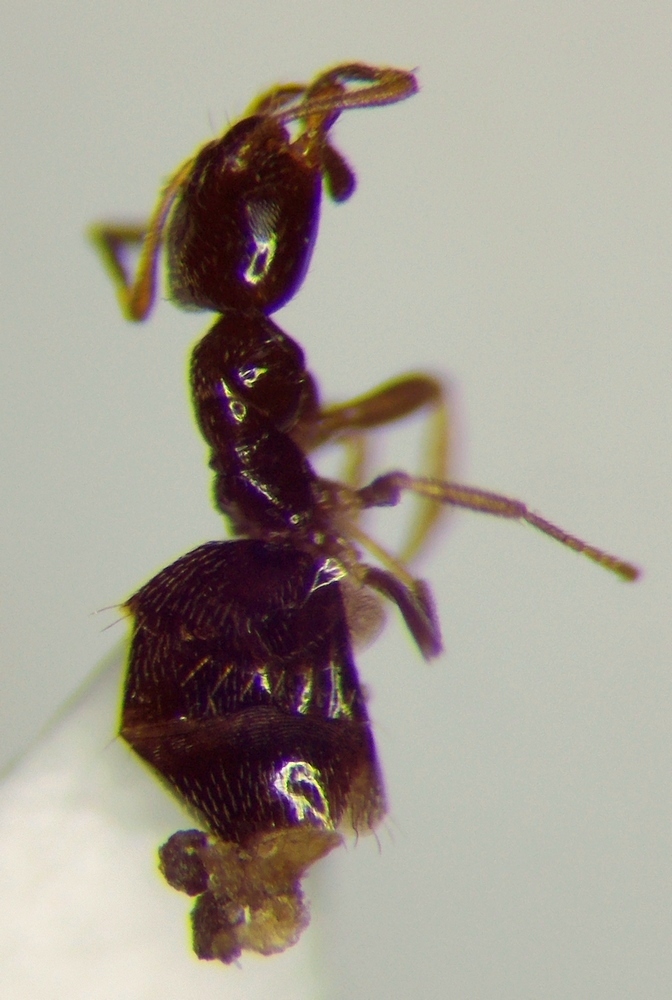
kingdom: Animalia
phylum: Arthropoda
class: Insecta
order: Hymenoptera
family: Formicidae
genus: Plagiolepis
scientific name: Plagiolepis pallescens
